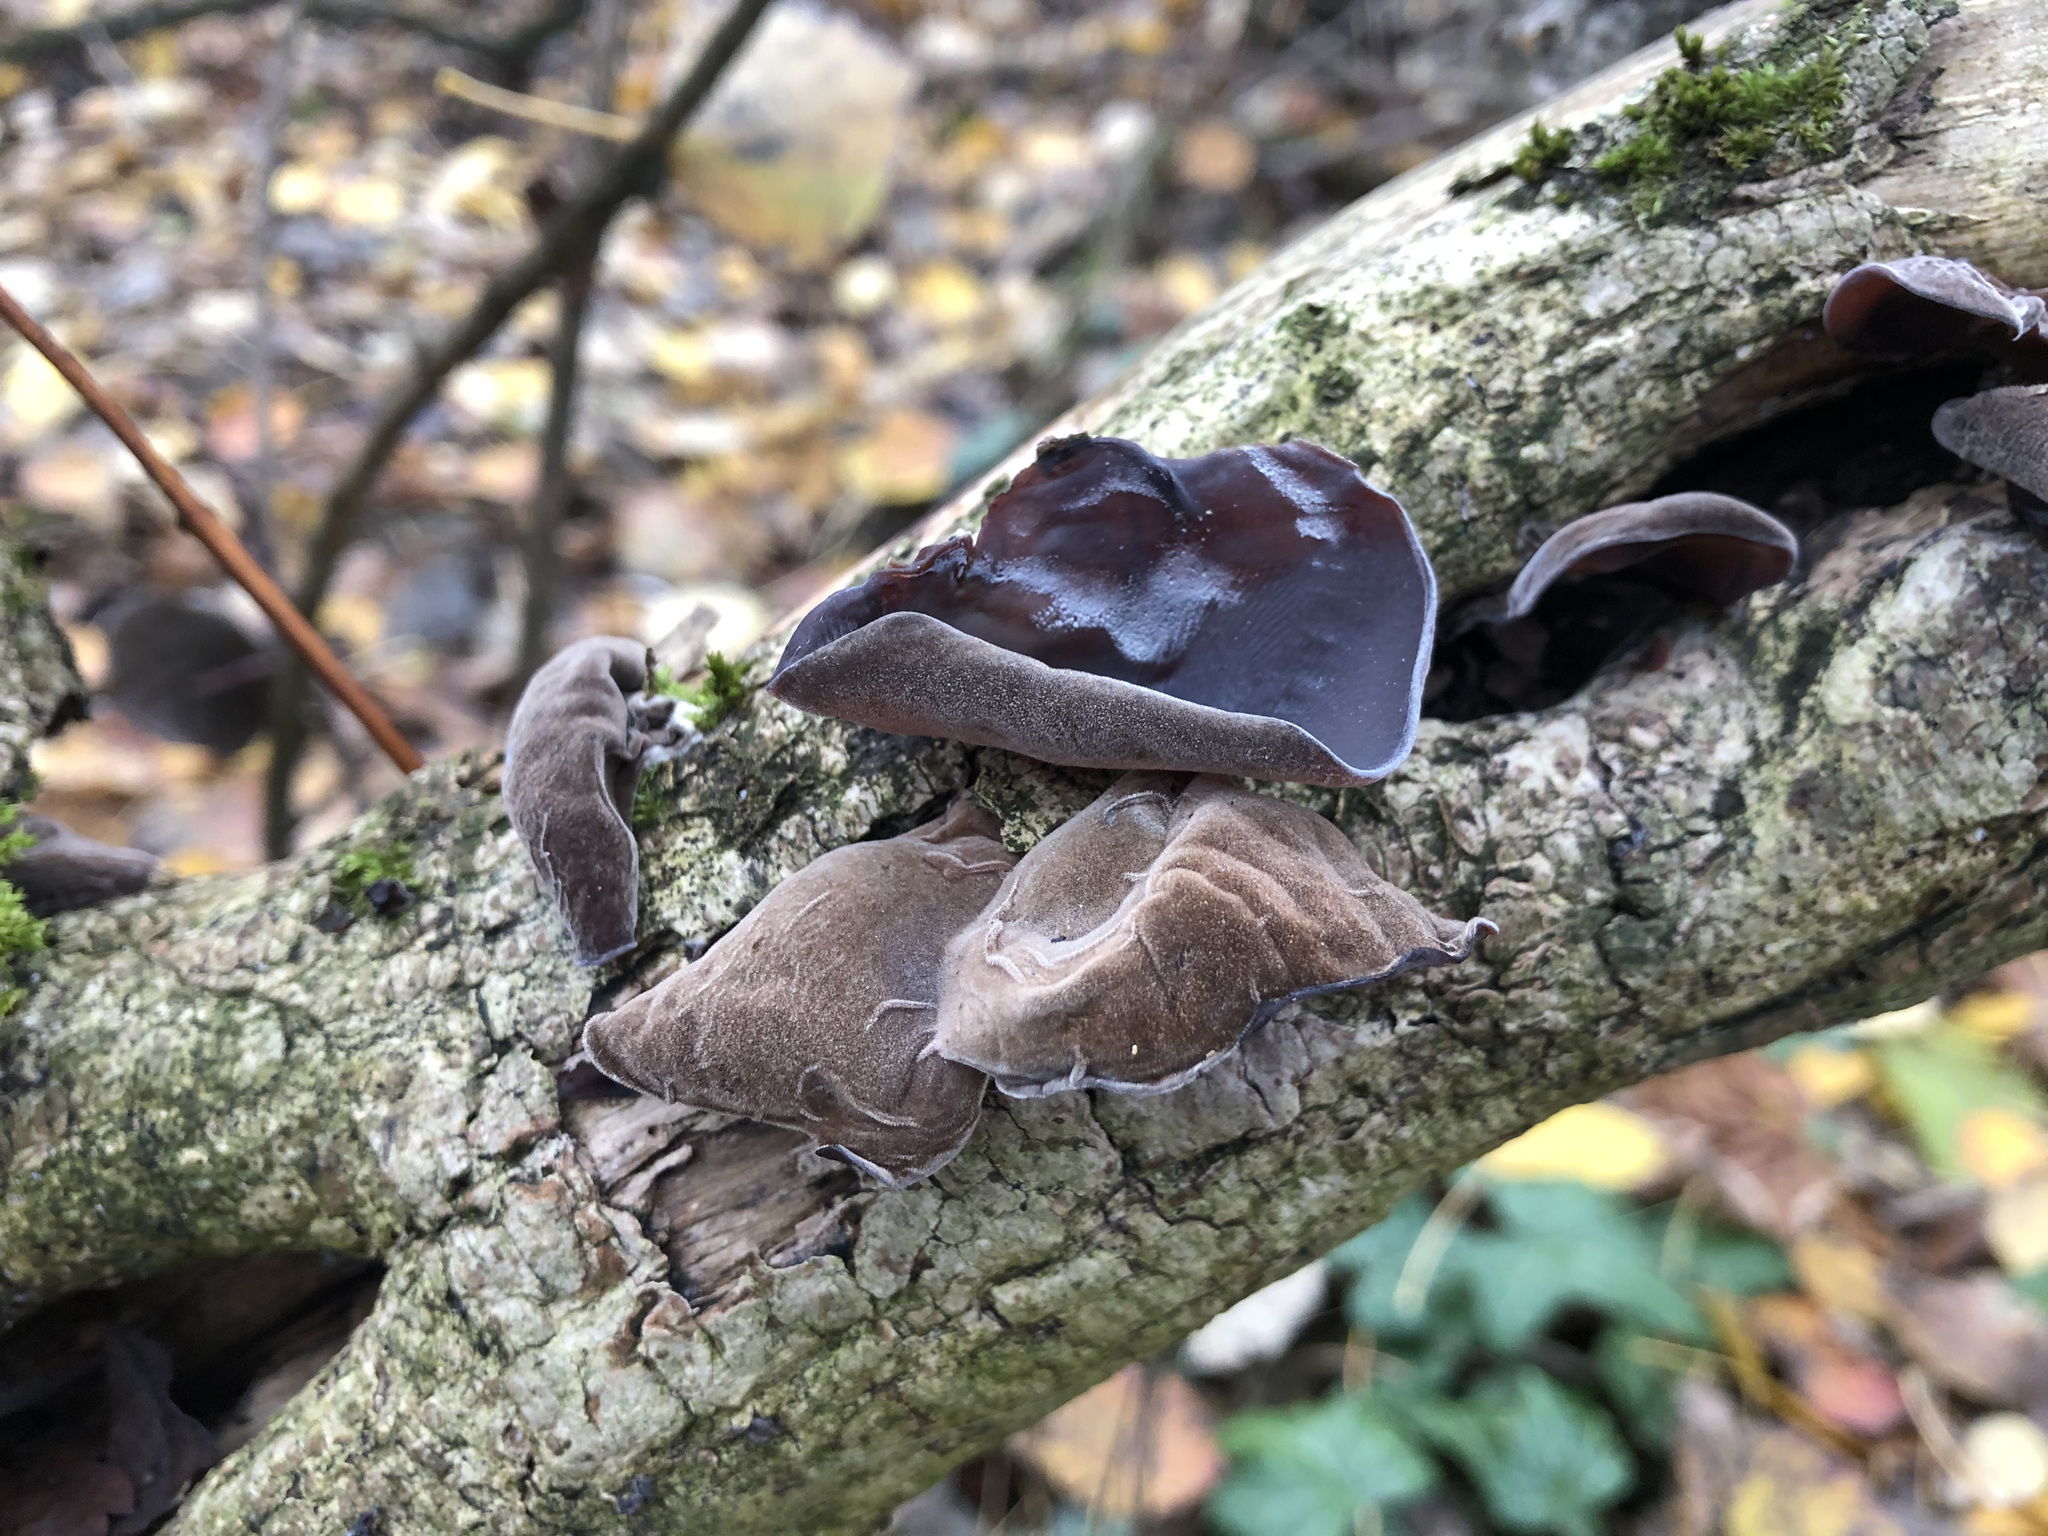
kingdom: Fungi
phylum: Basidiomycota
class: Agaricomycetes
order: Auriculariales
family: Auriculariaceae
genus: Auricularia
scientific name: Auricularia auricula-judae
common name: Jelly ear
